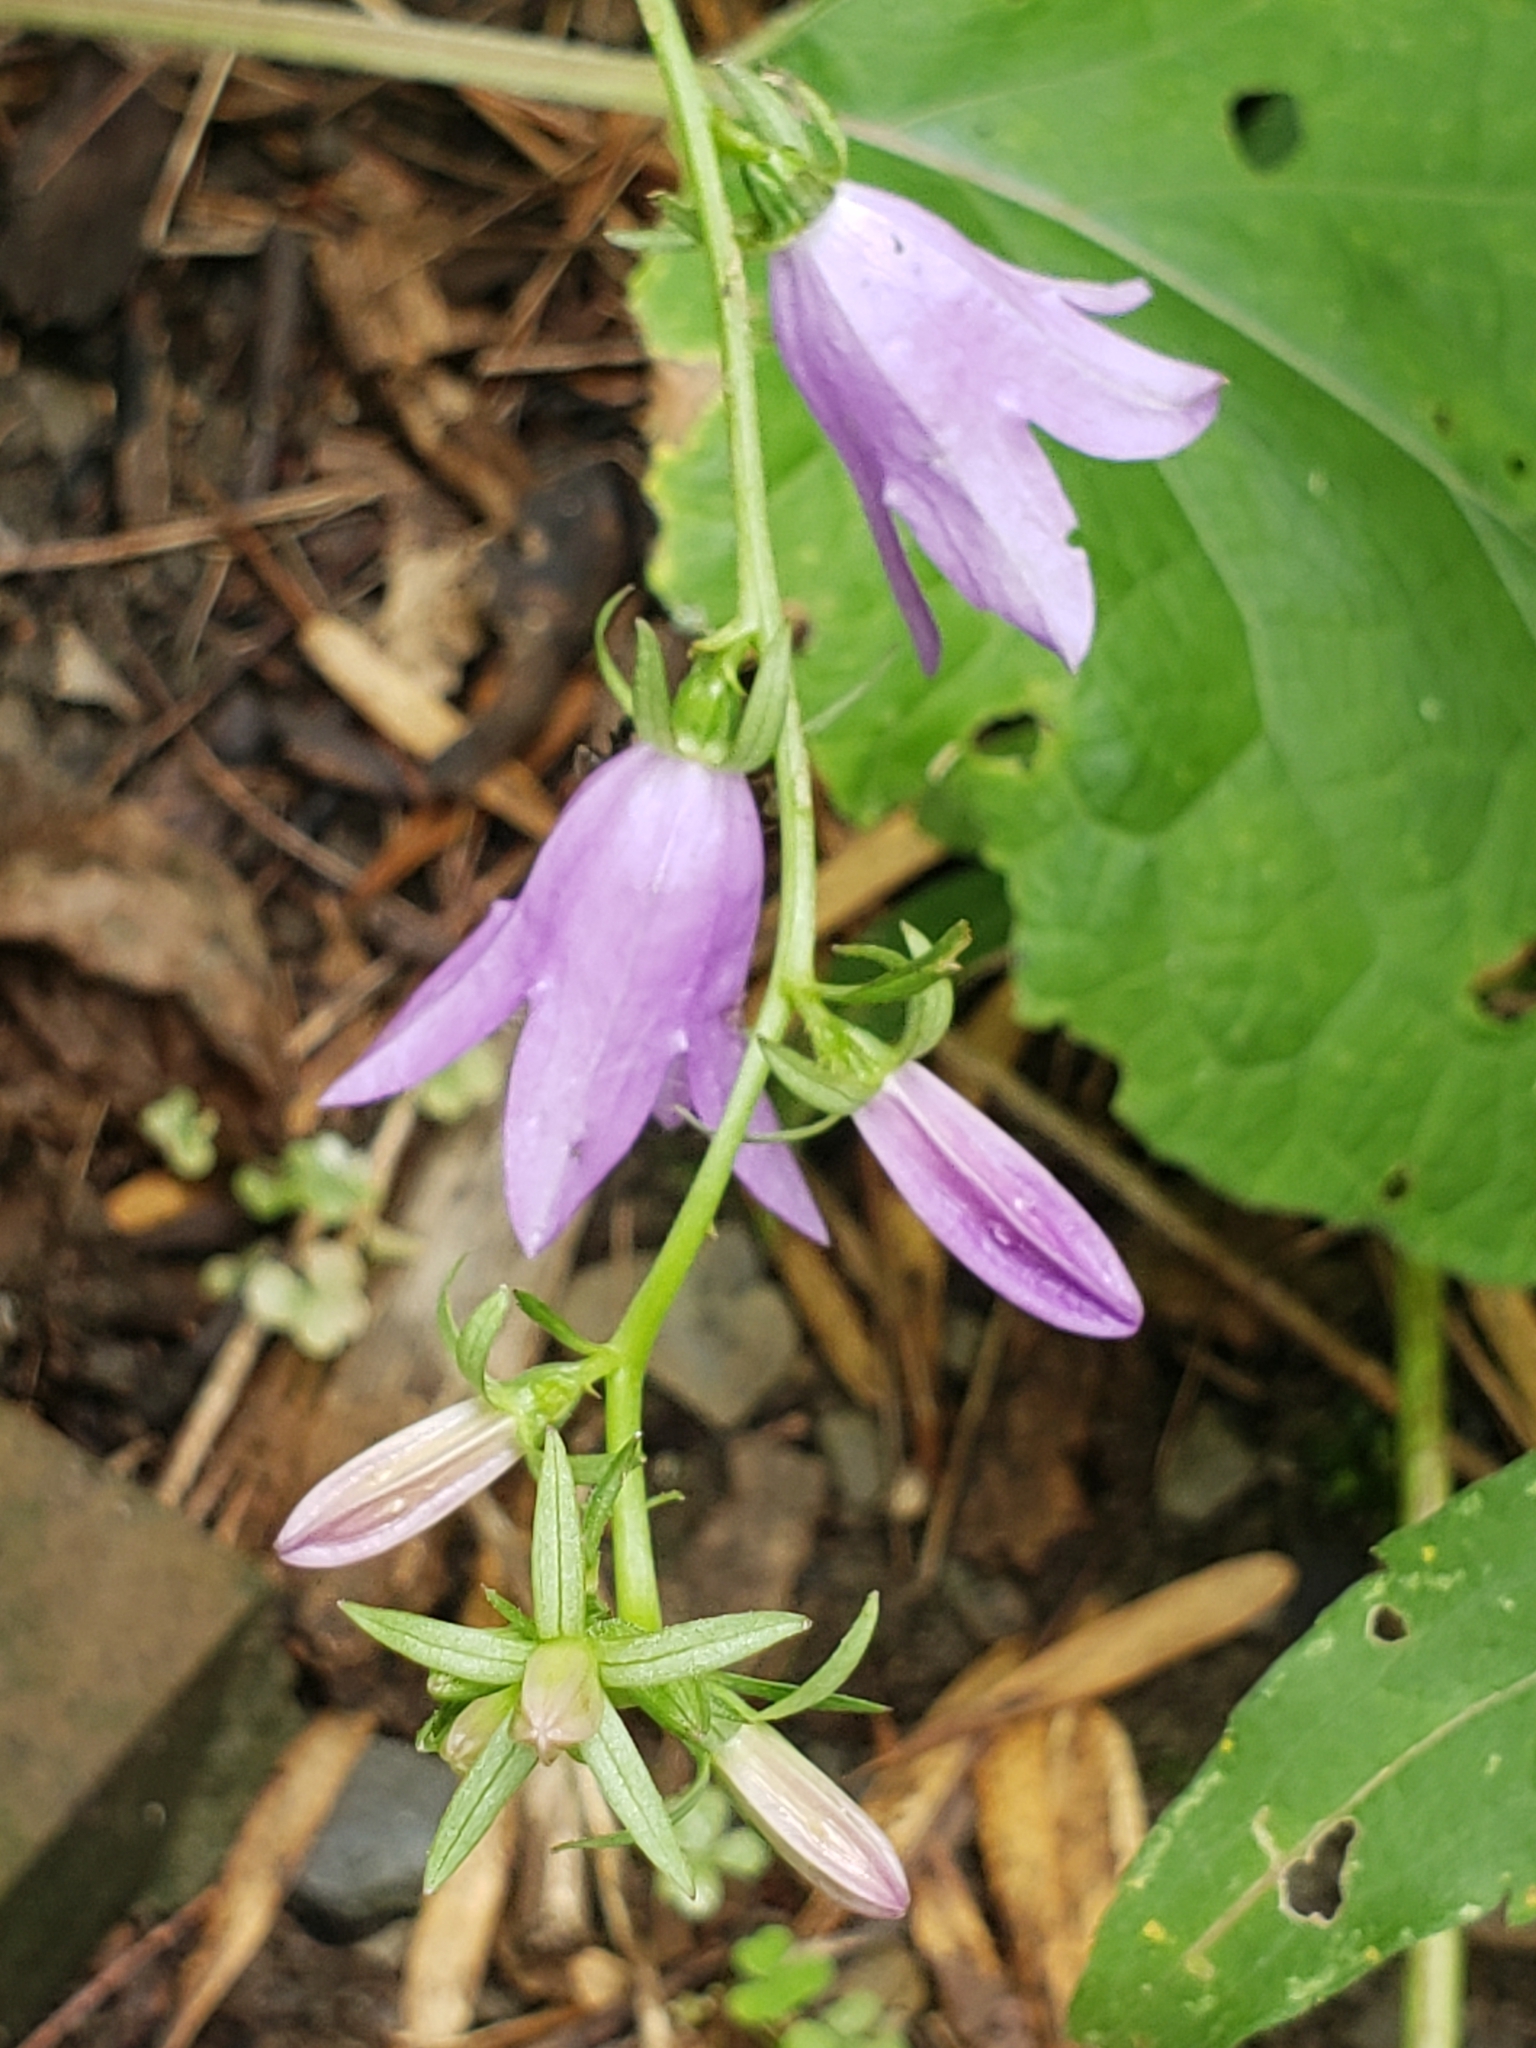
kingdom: Plantae
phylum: Tracheophyta
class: Magnoliopsida
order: Asterales
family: Campanulaceae
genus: Campanula
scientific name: Campanula rapunculoides
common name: Creeping bellflower
